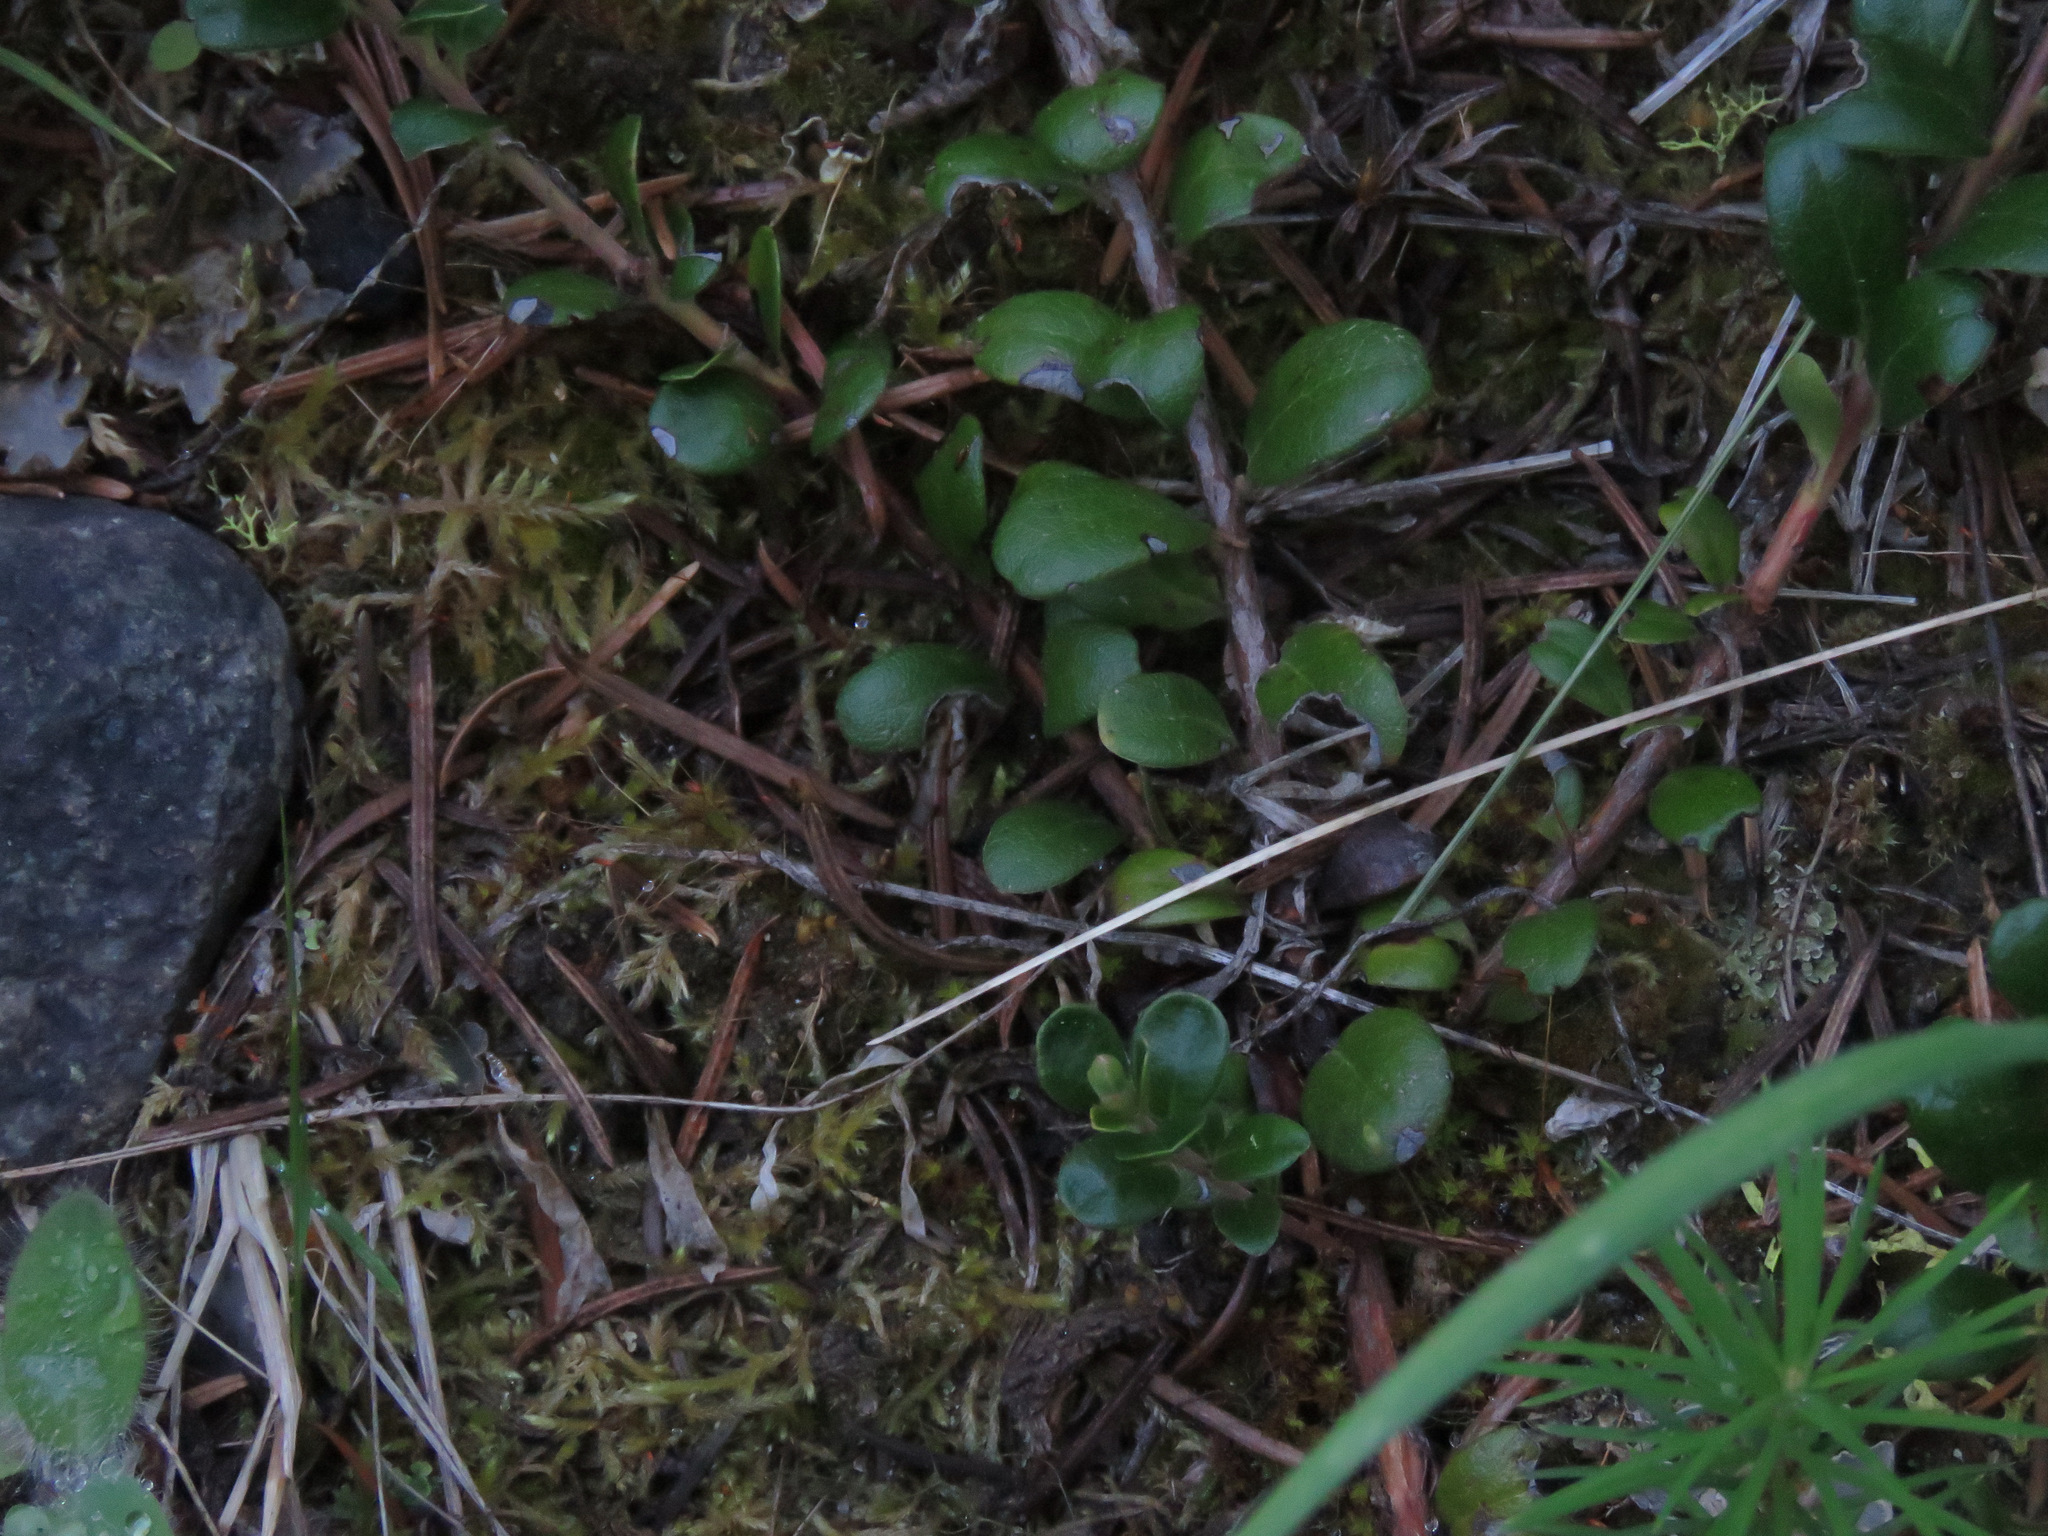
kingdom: Plantae
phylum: Tracheophyta
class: Magnoliopsida
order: Ericales
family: Ericaceae
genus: Arctostaphylos
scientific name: Arctostaphylos uva-ursi
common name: Bearberry
